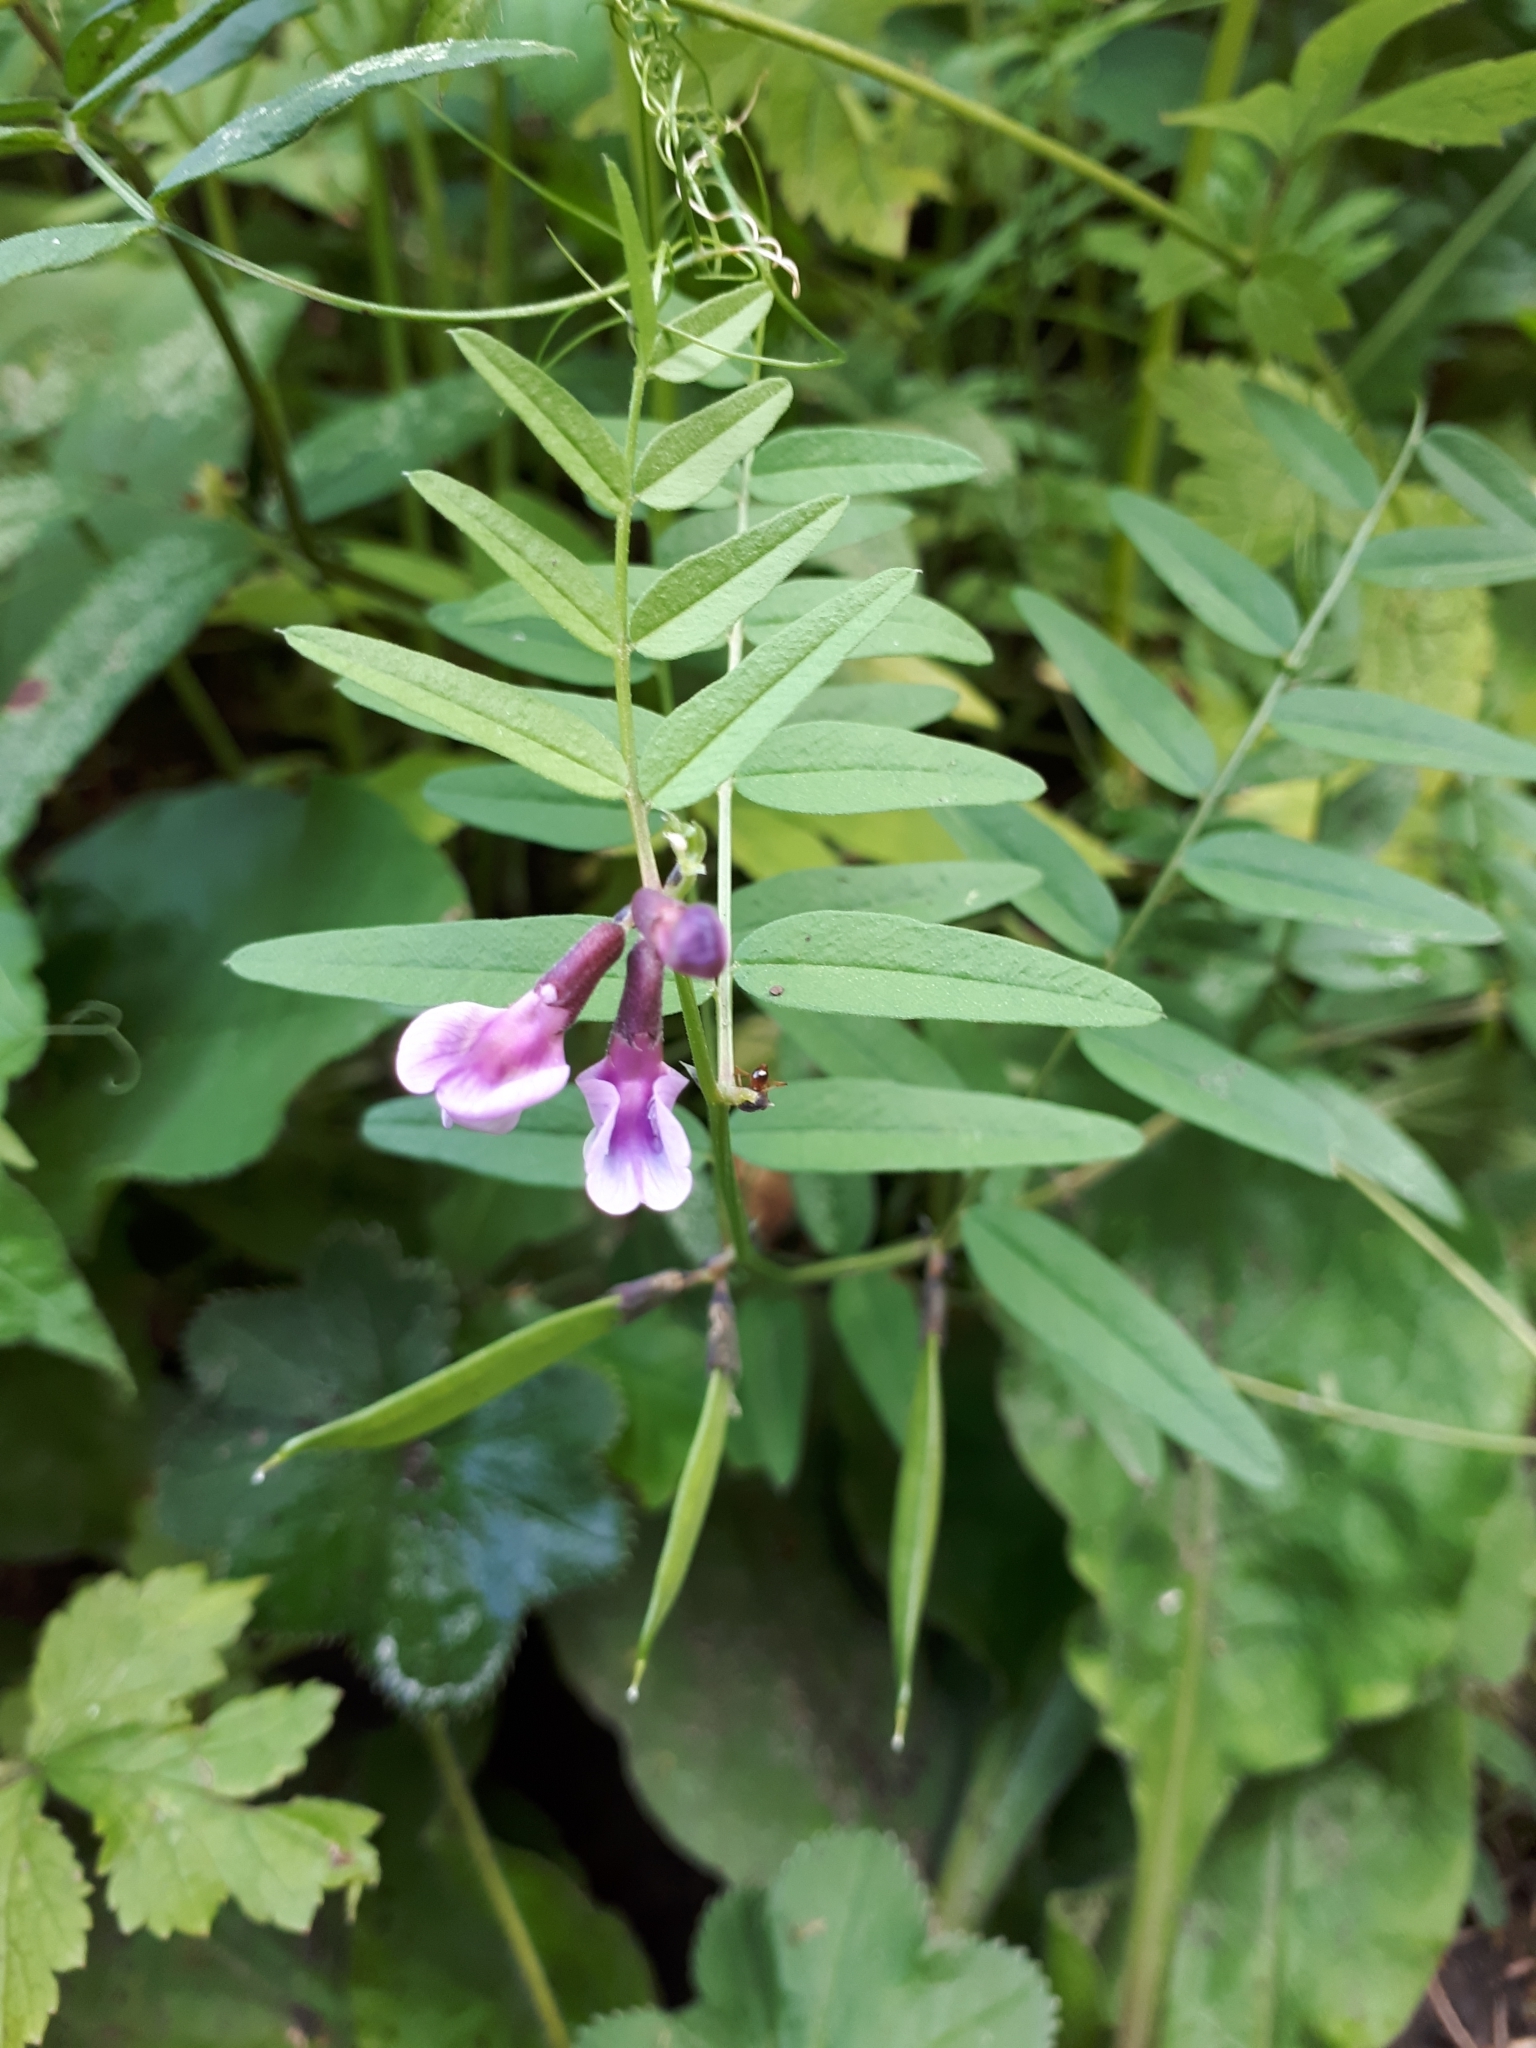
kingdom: Plantae
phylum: Tracheophyta
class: Magnoliopsida
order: Fabales
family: Fabaceae
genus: Vicia
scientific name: Vicia sepium
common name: Bush vetch
